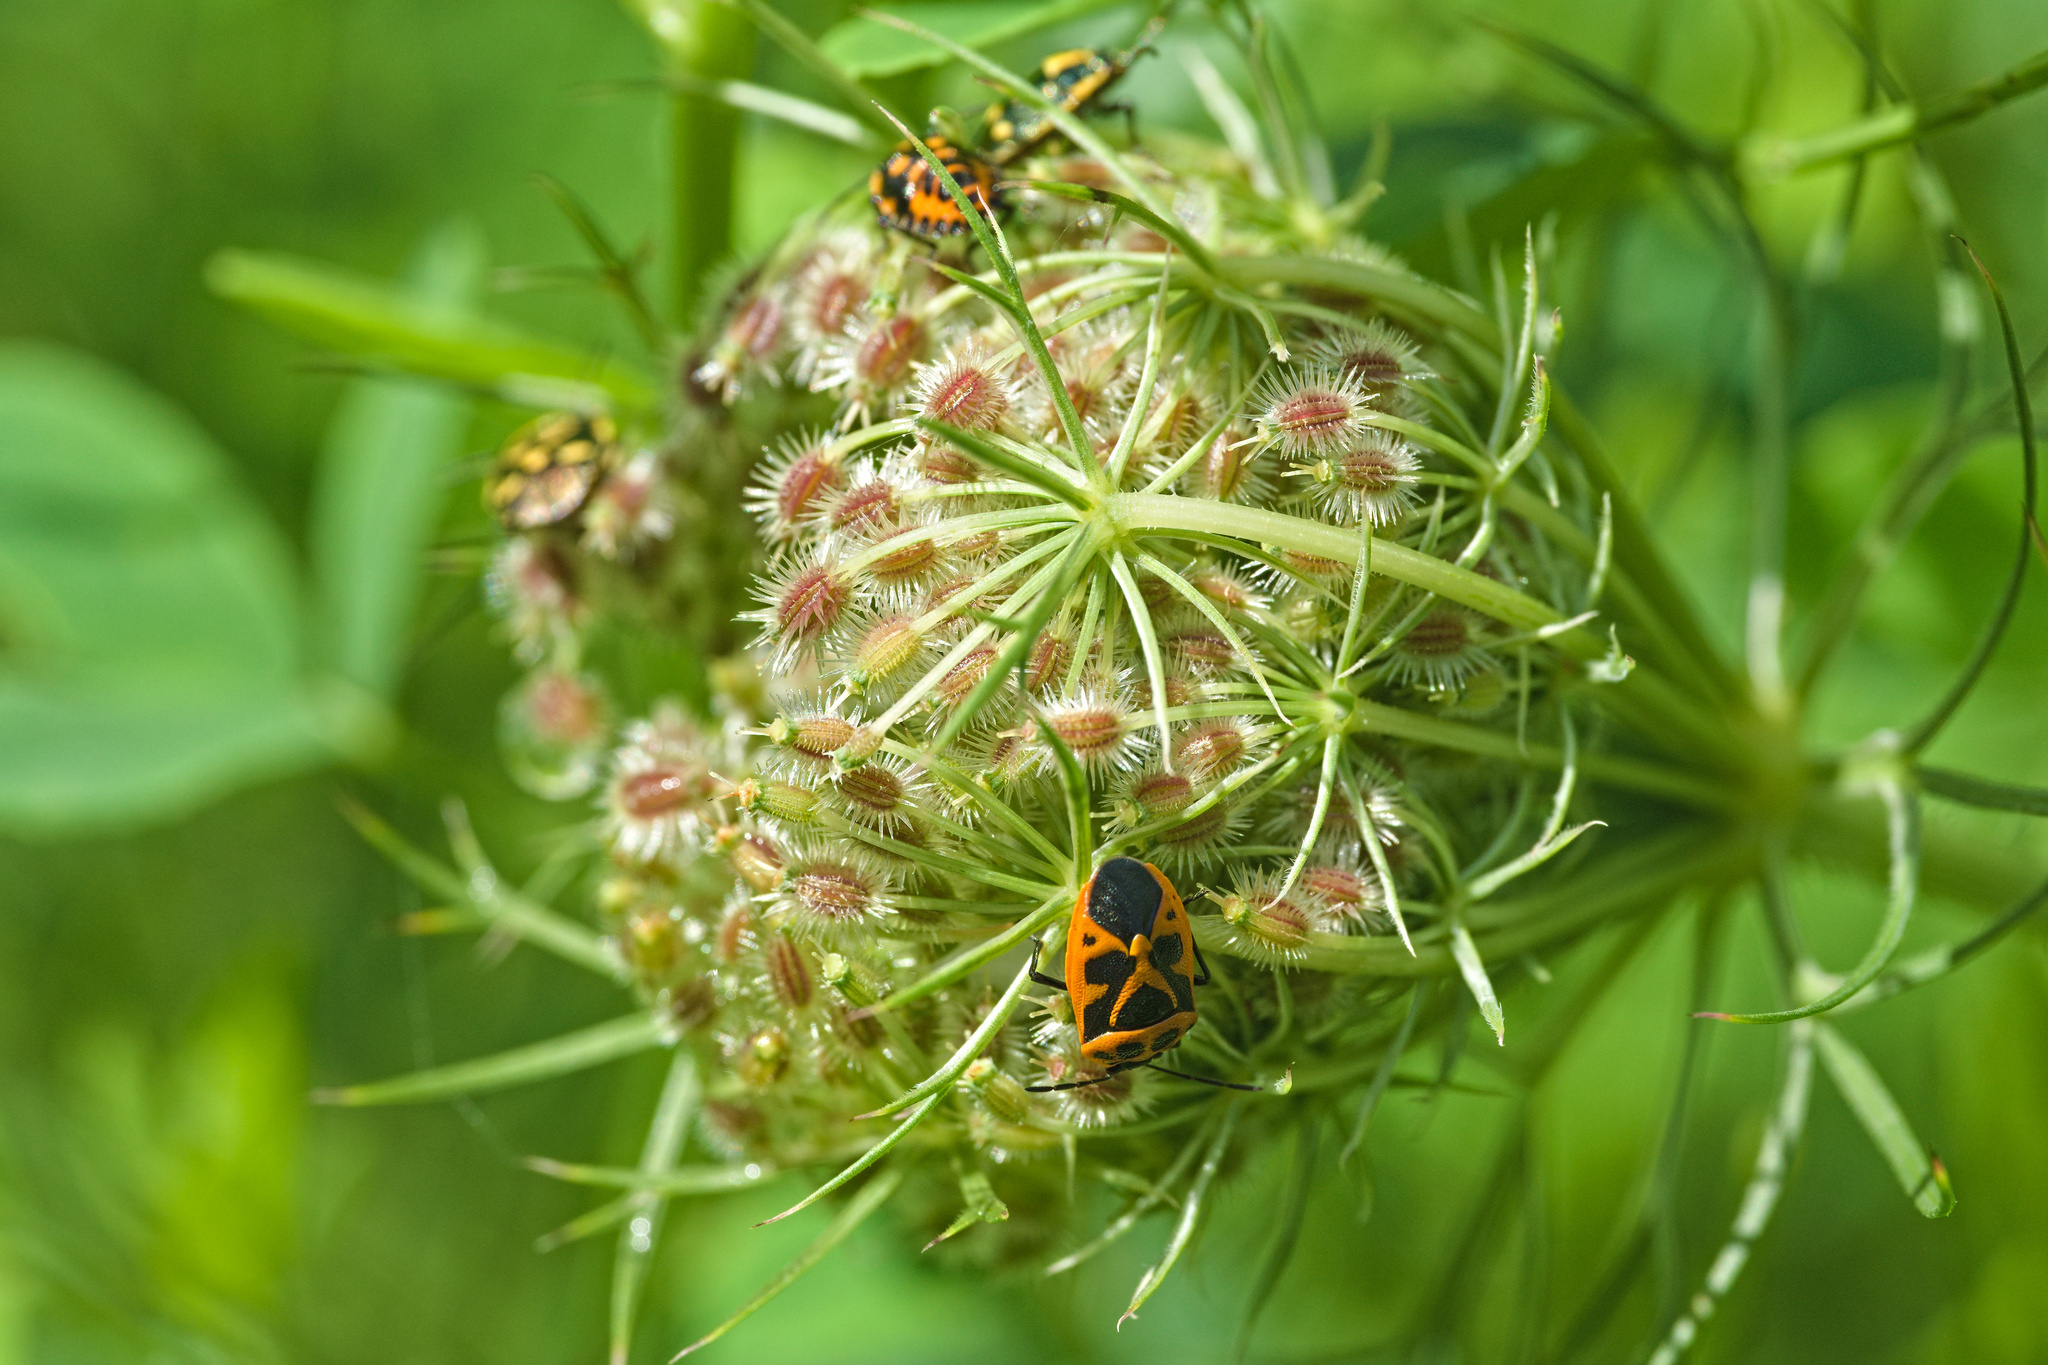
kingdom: Animalia
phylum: Arthropoda
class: Insecta
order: Hemiptera
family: Pentatomidae
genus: Eurydema
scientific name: Eurydema oleracea
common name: Cabbage bug
